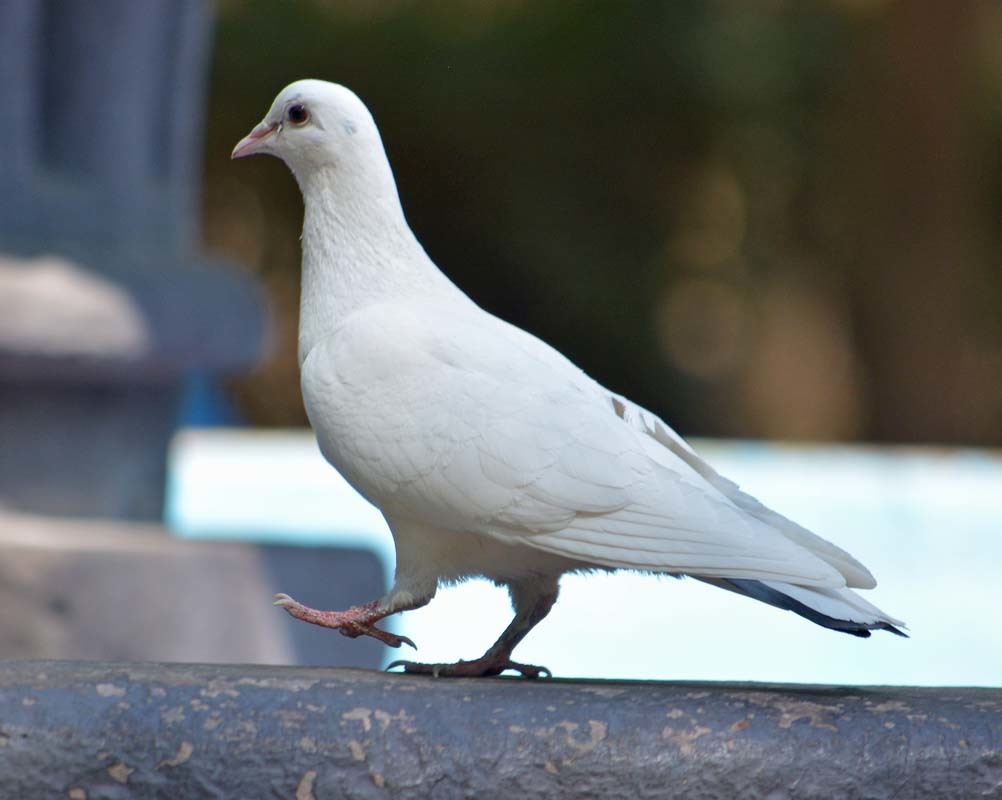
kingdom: Animalia
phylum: Chordata
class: Aves
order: Columbiformes
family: Columbidae
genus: Columba
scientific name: Columba livia
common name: Rock pigeon
